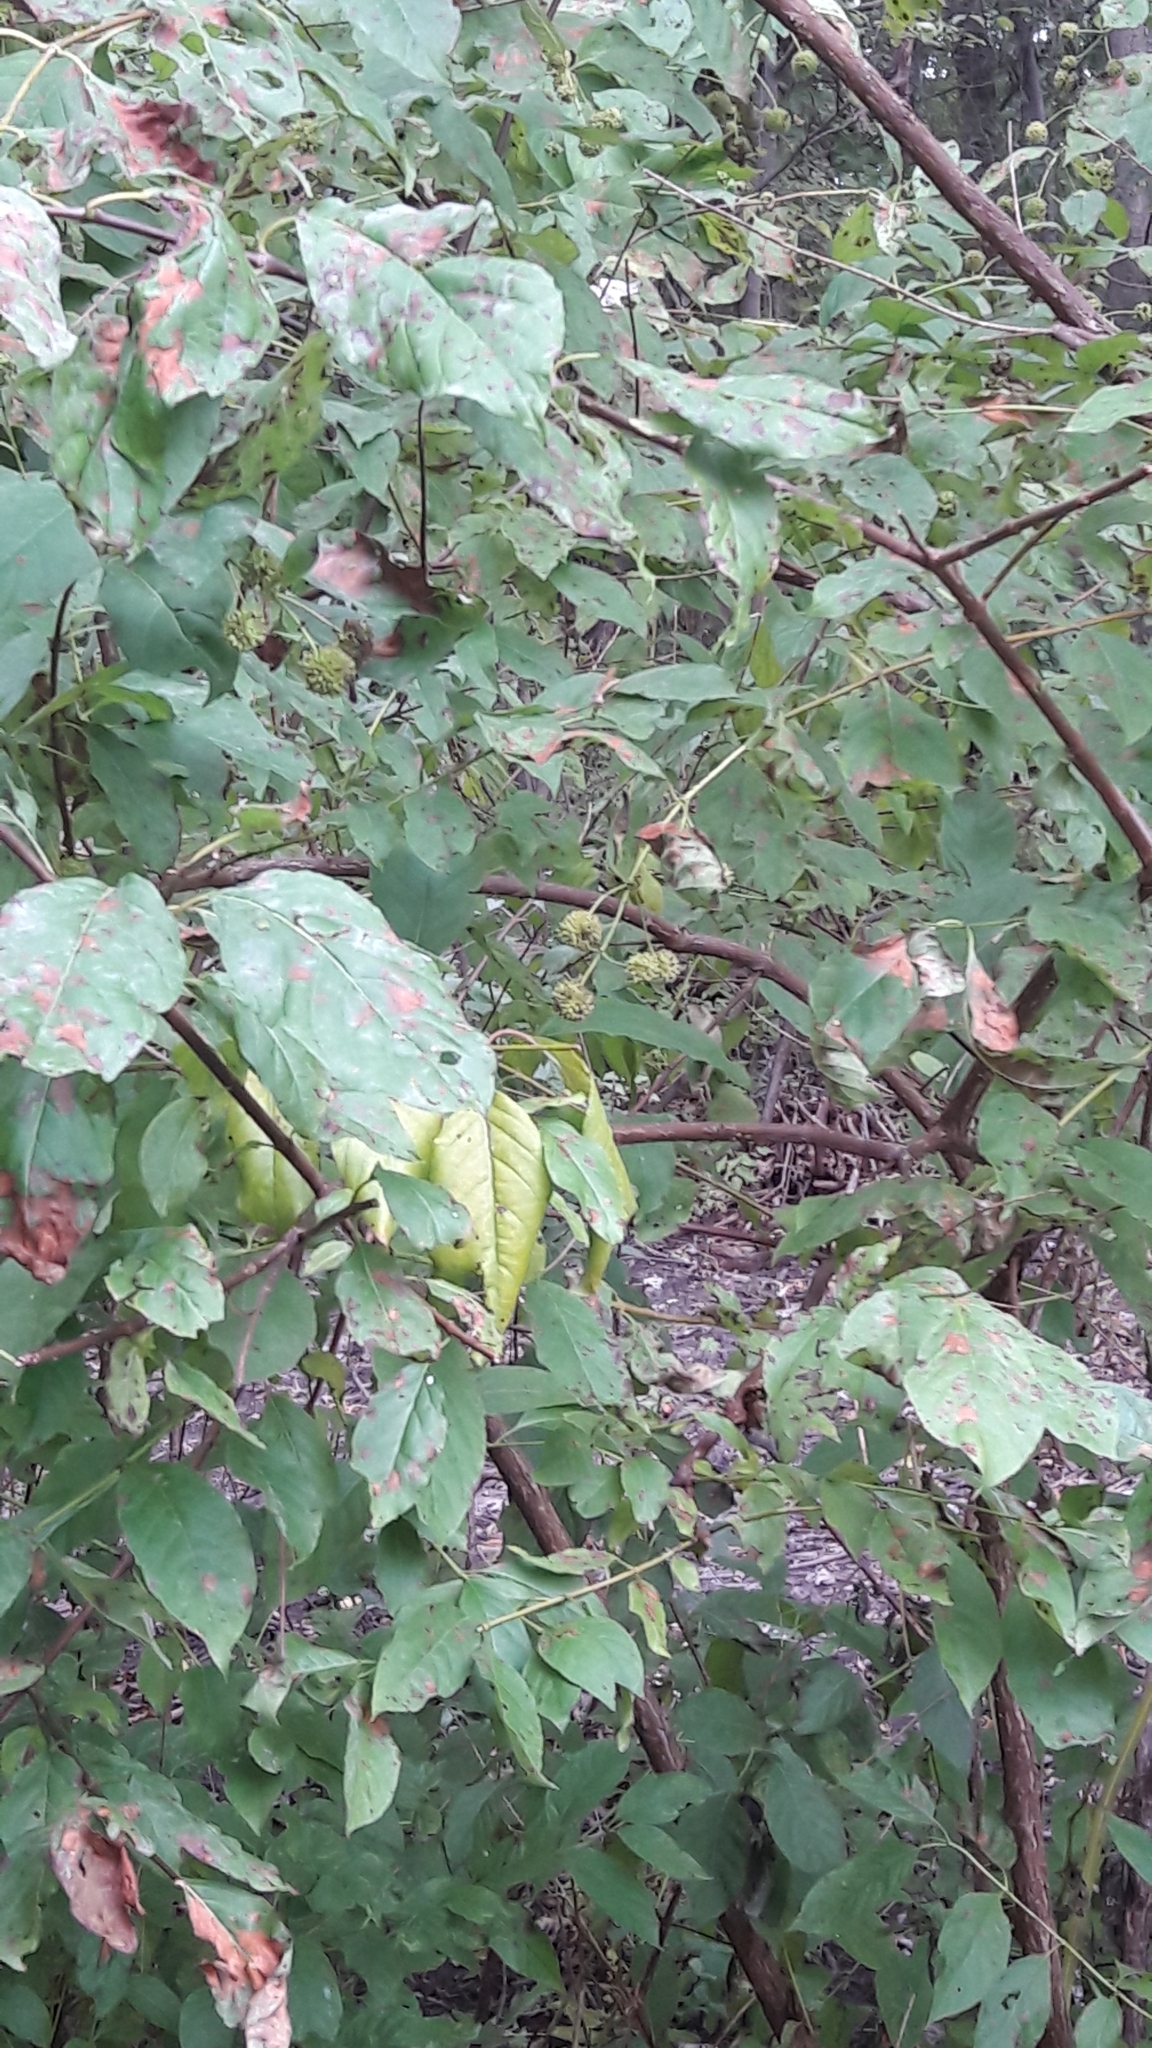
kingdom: Plantae
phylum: Tracheophyta
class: Magnoliopsida
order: Gentianales
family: Rubiaceae
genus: Cephalanthus
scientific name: Cephalanthus occidentalis
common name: Button-willow
